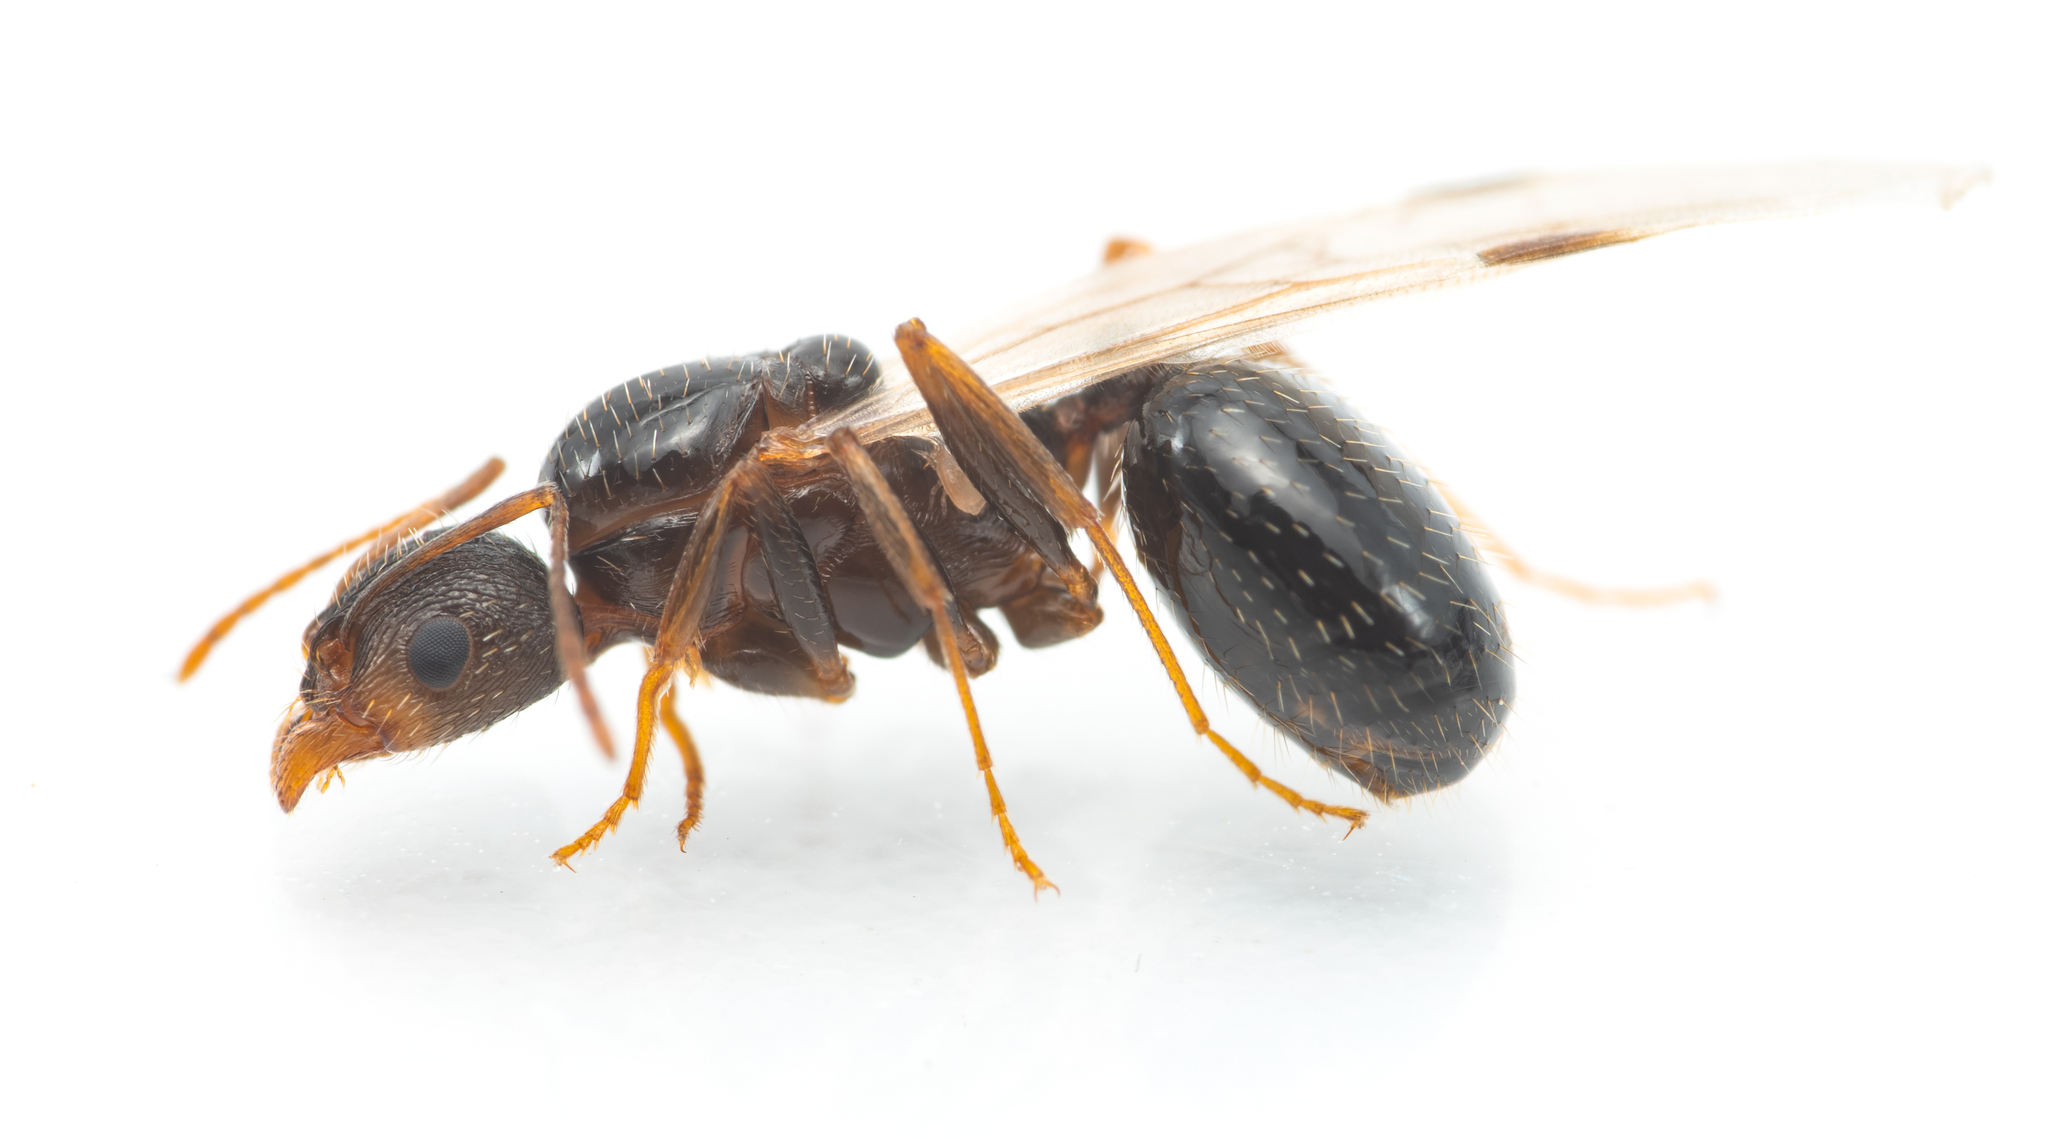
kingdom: Animalia
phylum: Arthropoda
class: Insecta
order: Hymenoptera
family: Formicidae
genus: Aphaenogaster
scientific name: Aphaenogaster gibbosa
